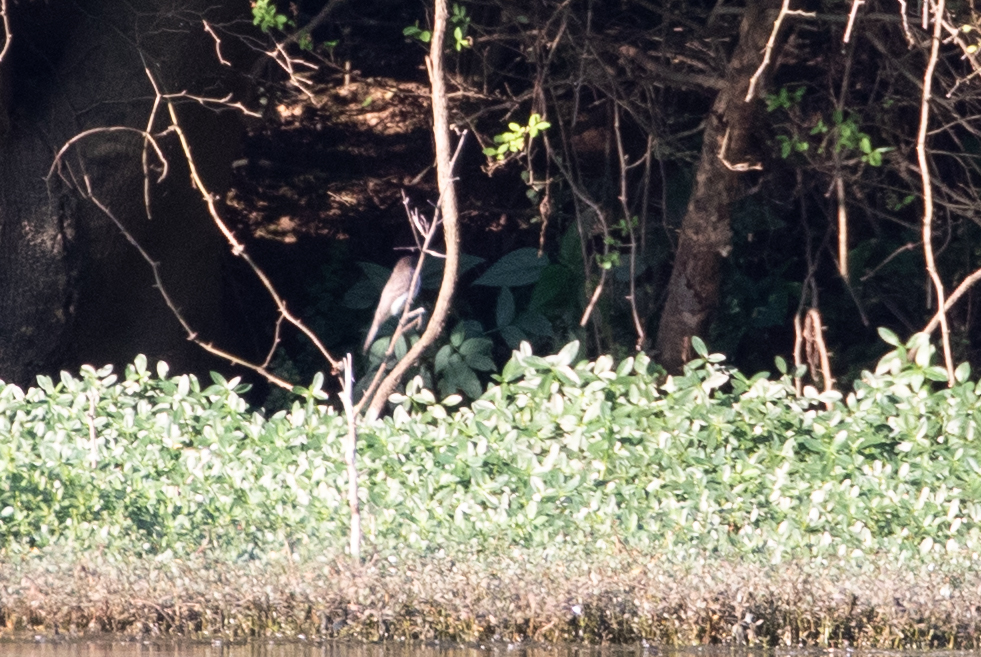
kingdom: Animalia
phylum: Chordata
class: Aves
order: Passeriformes
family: Tyrannidae
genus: Sayornis
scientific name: Sayornis phoebe
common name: Eastern phoebe
